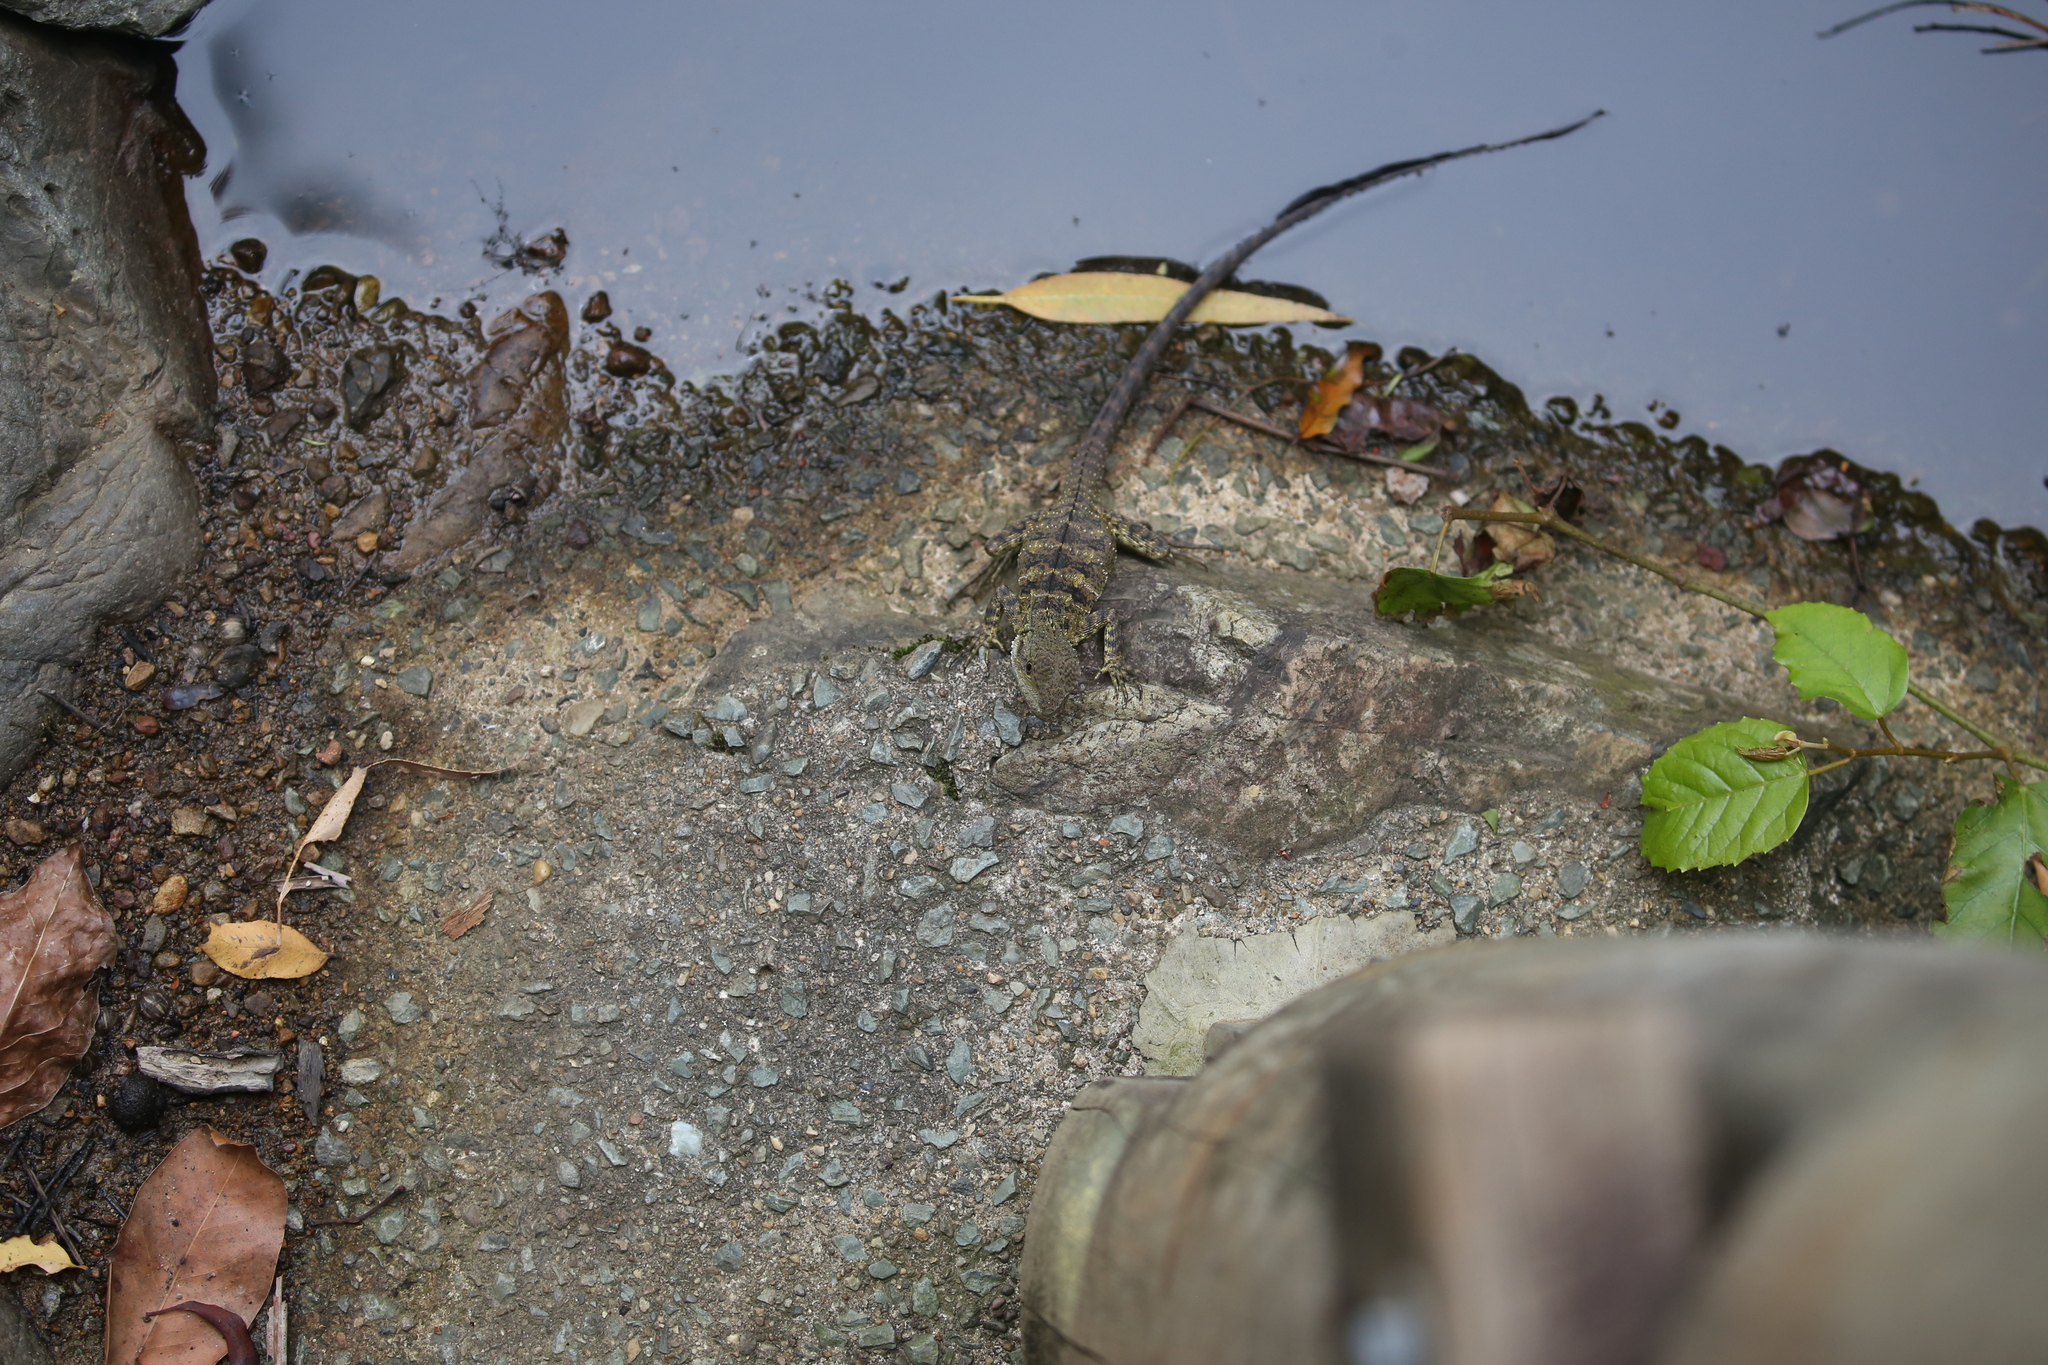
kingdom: Animalia
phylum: Chordata
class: Squamata
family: Agamidae
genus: Intellagama
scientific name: Intellagama lesueurii
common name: Eastern water dragon
